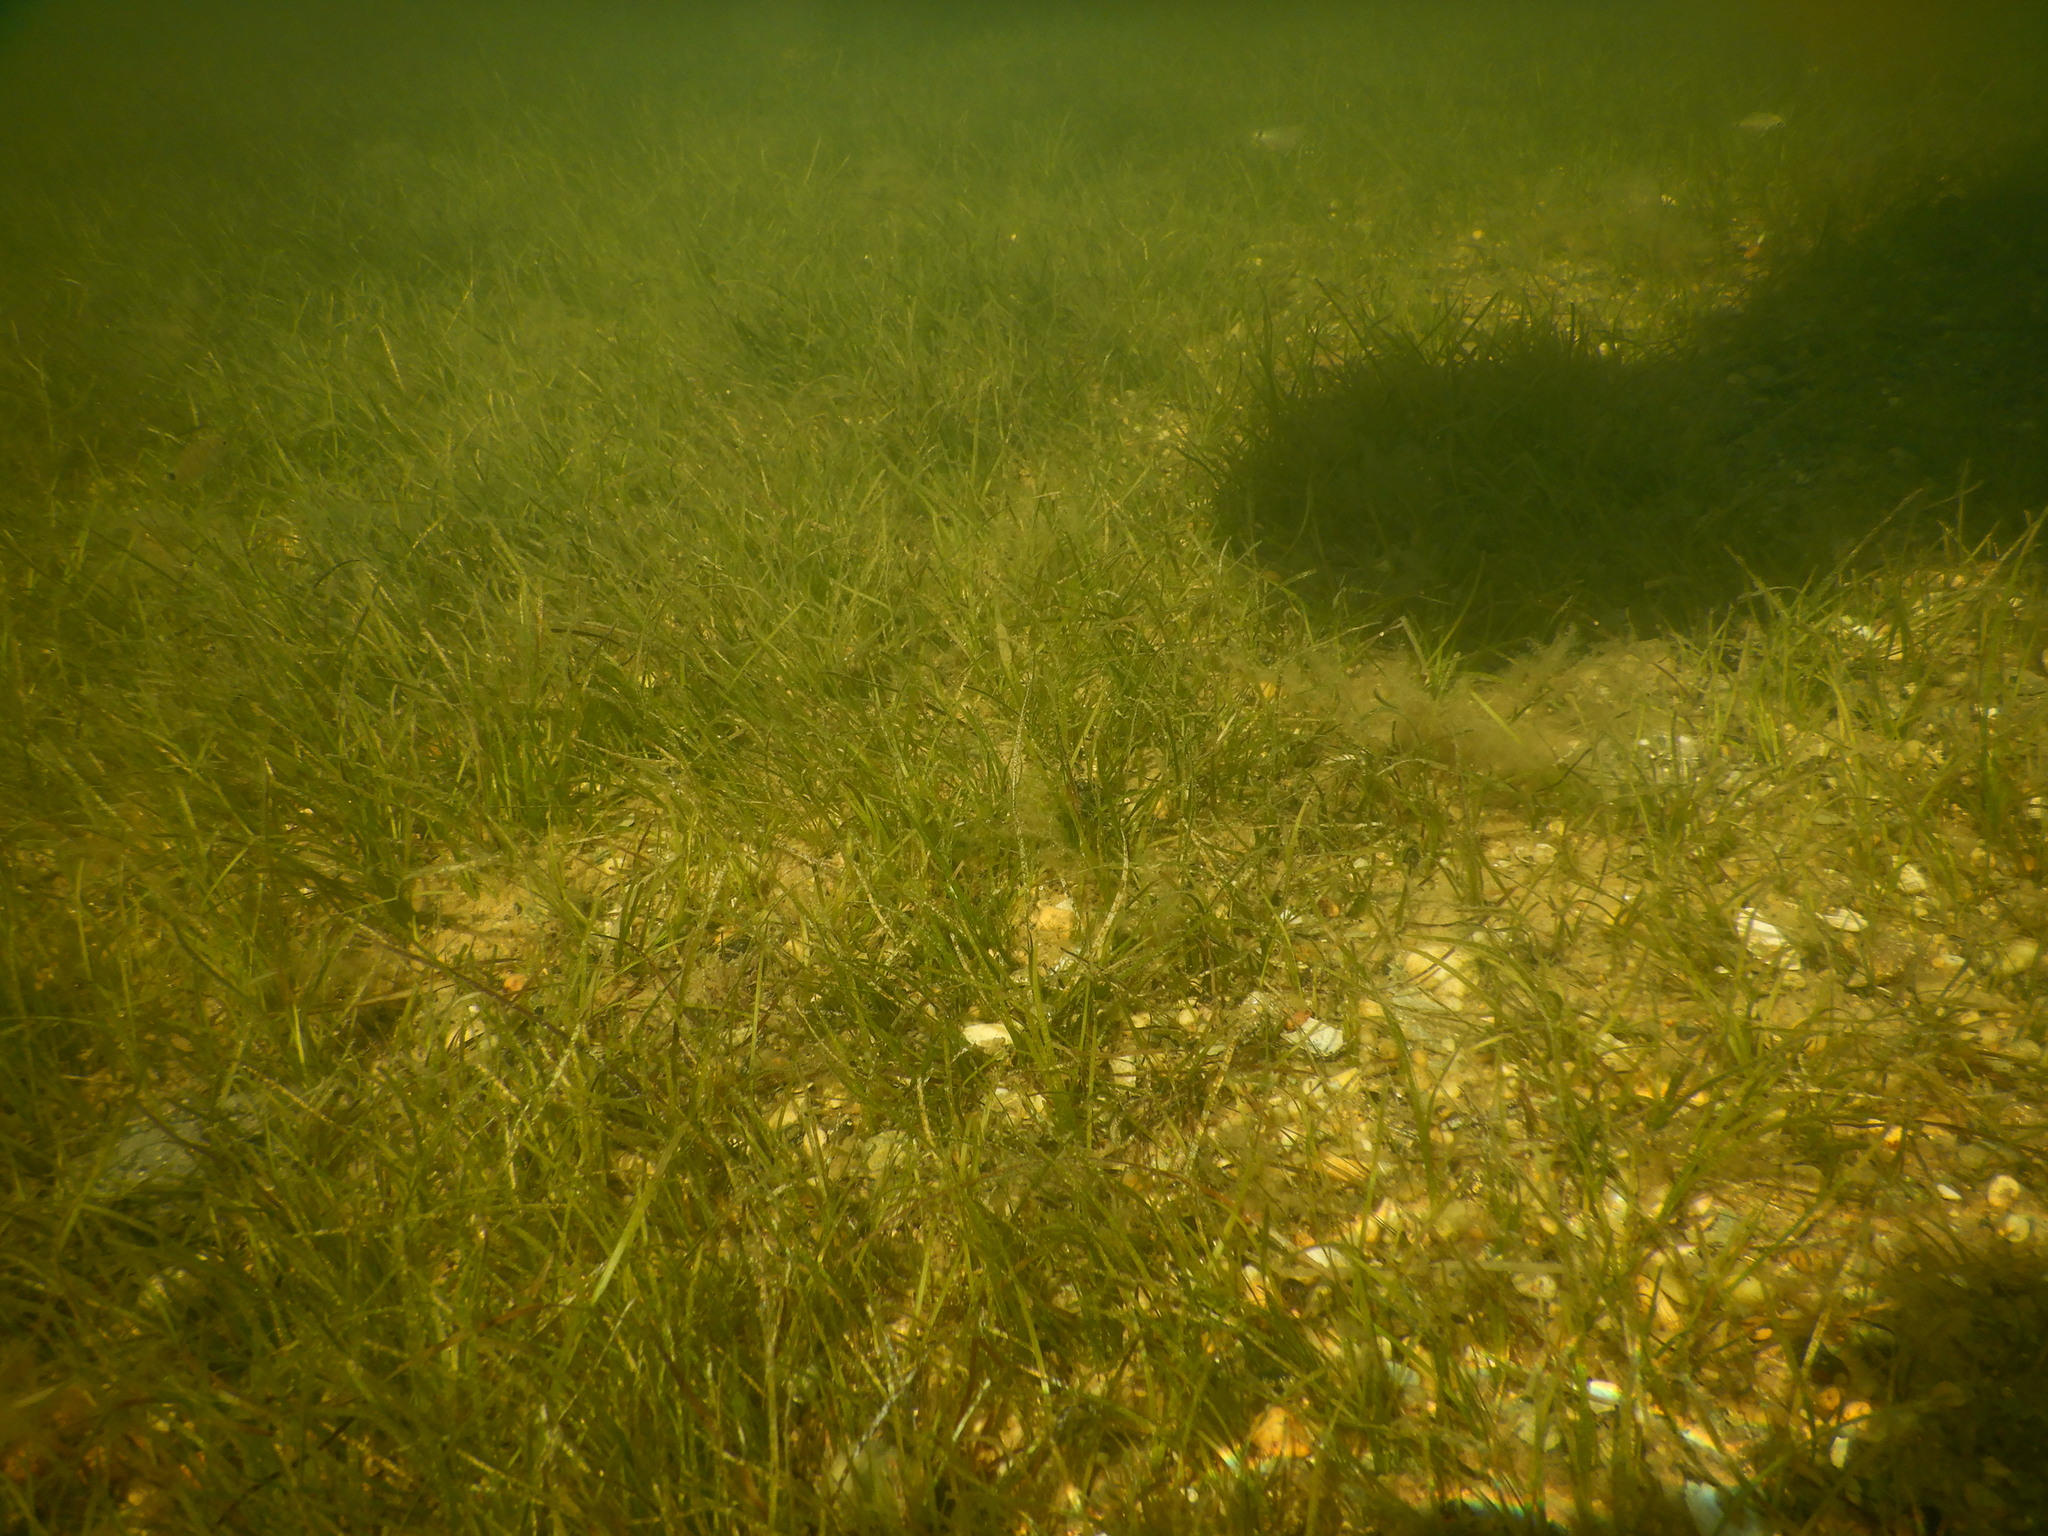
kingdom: Plantae
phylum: Tracheophyta
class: Liliopsida
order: Alismatales
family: Zosteraceae
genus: Zostera
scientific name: Zostera noltii
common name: Dwarf eelgrass
